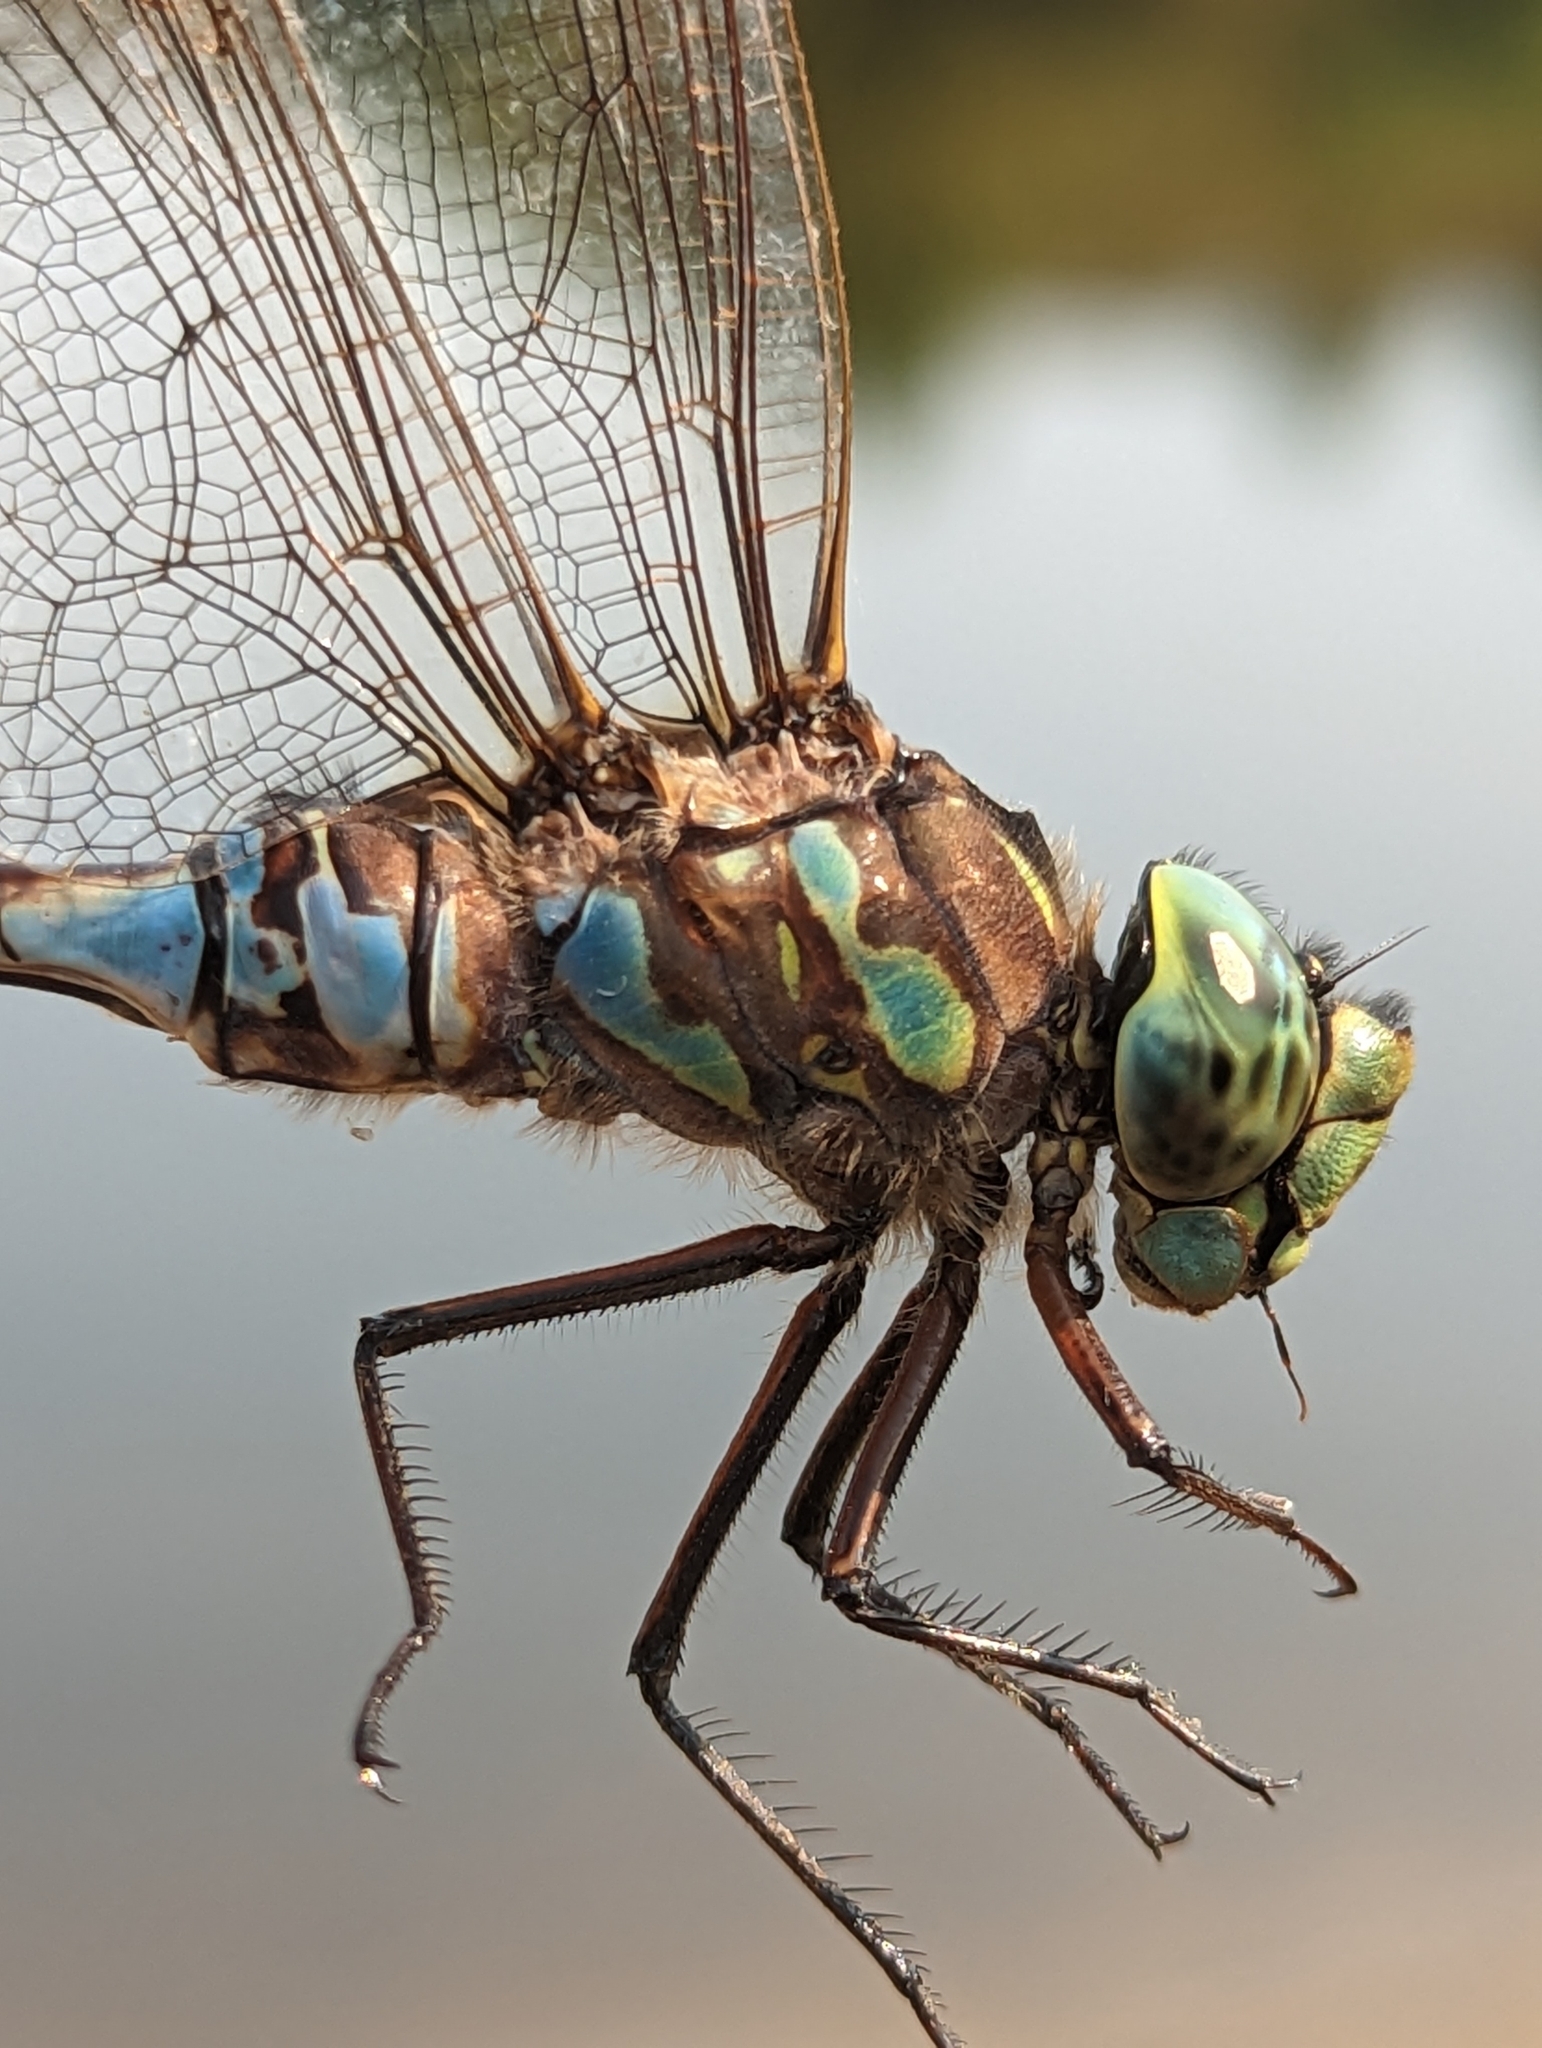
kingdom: Animalia
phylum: Arthropoda
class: Insecta
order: Odonata
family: Aeshnidae
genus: Aeshna
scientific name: Aeshna eremita
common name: Lake darner
